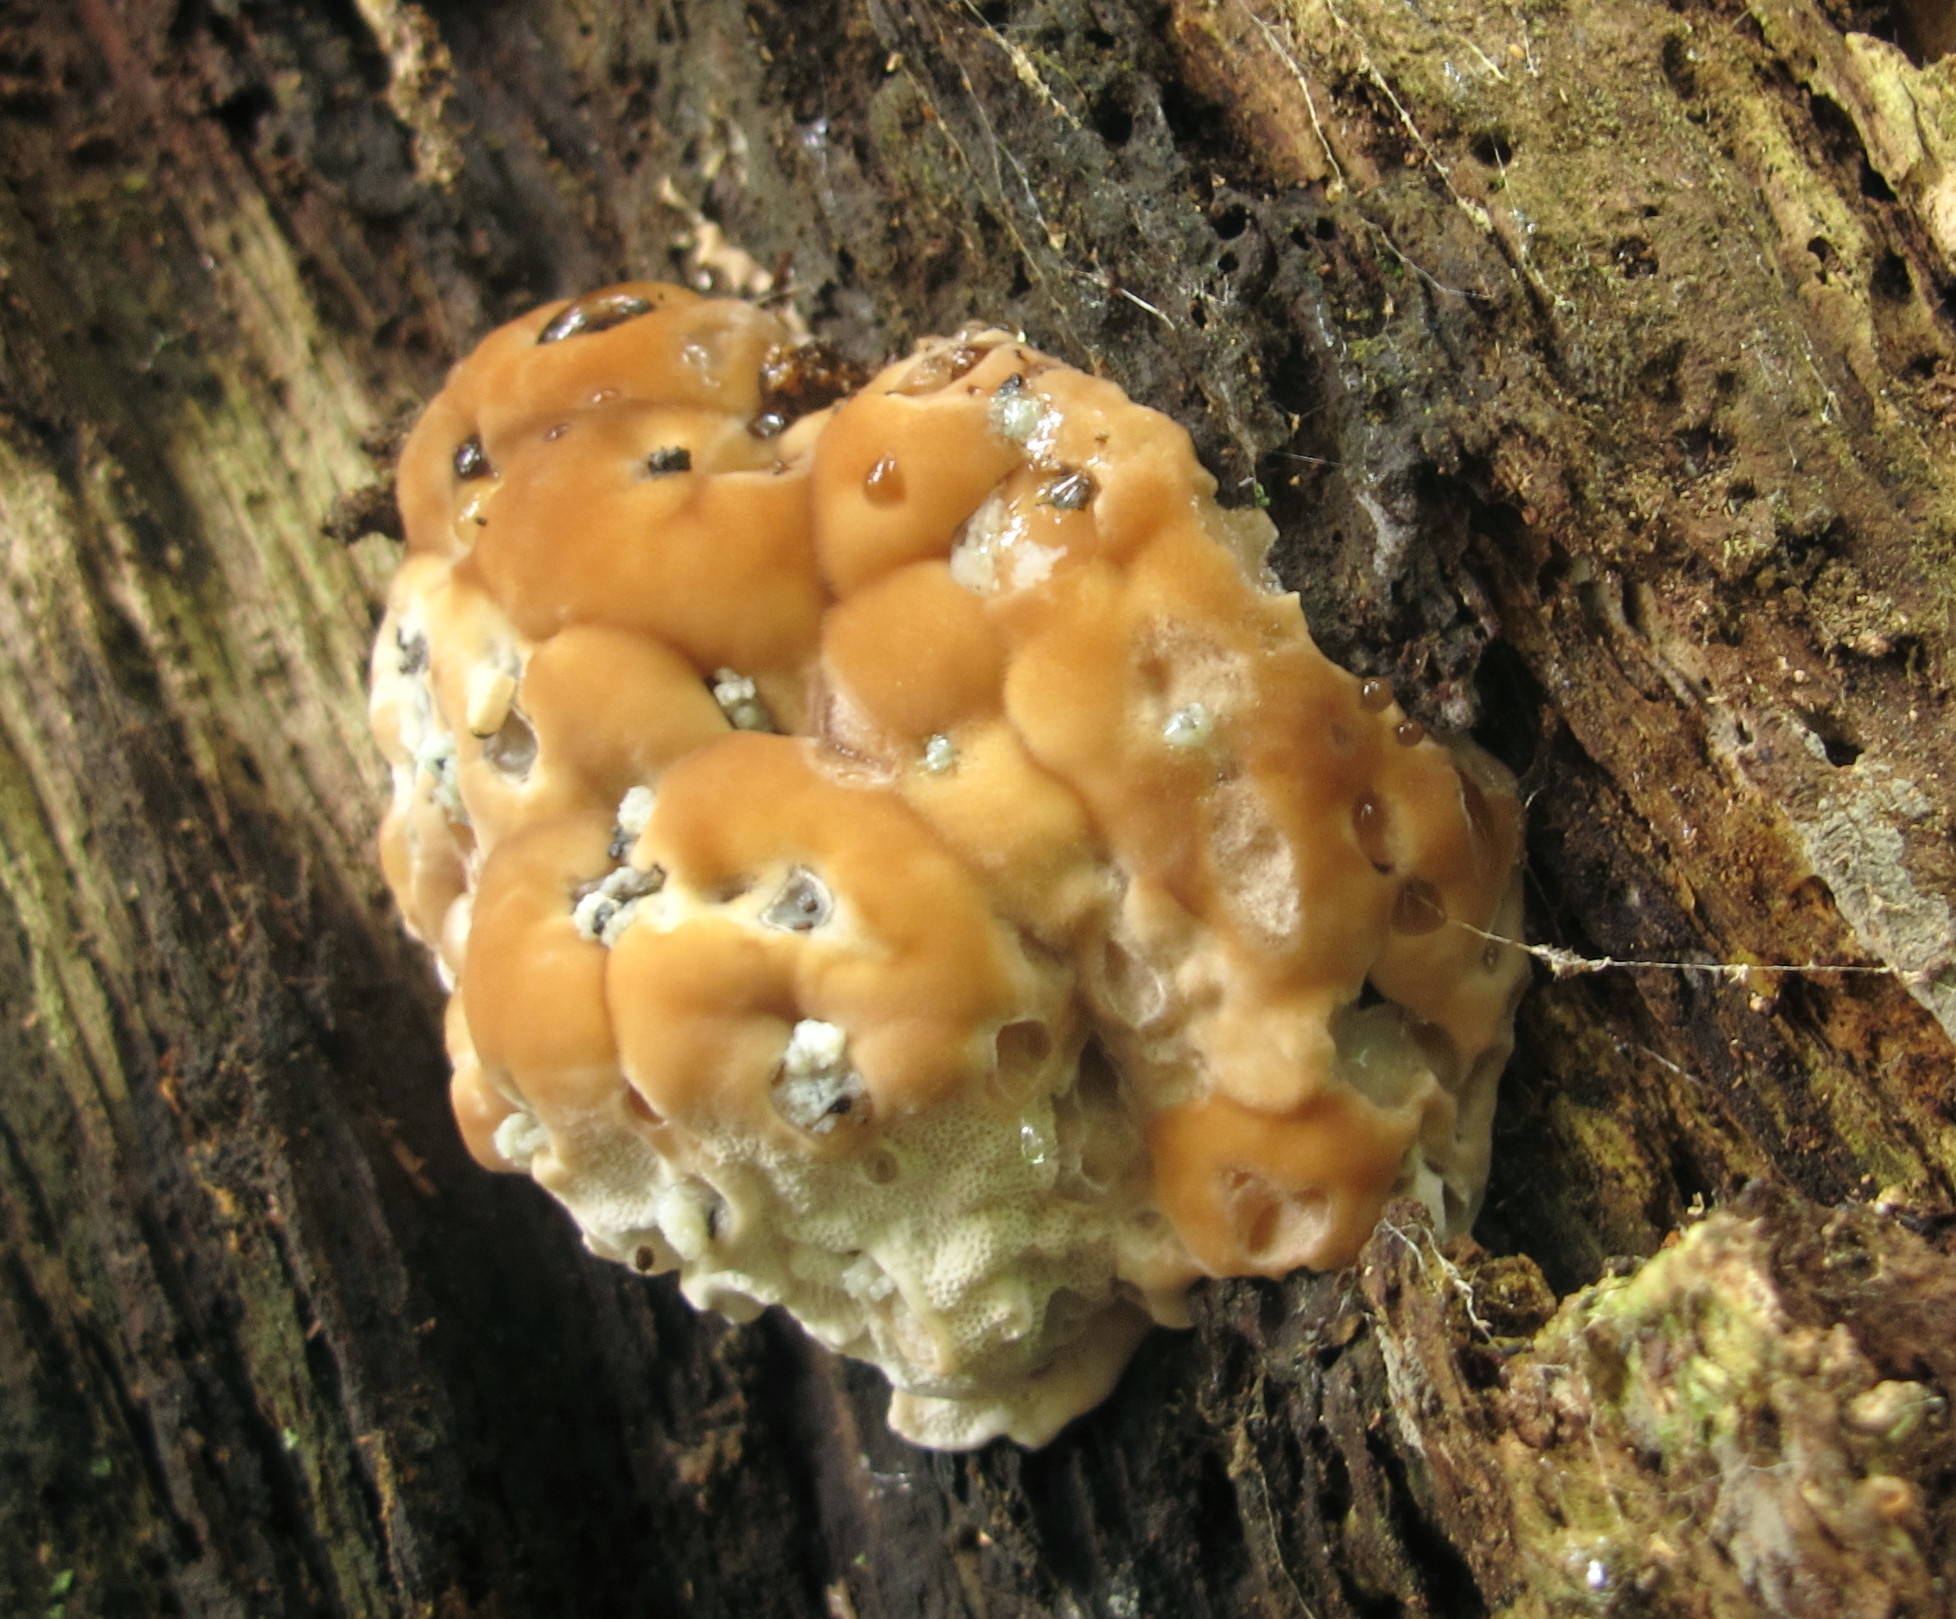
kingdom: Fungi
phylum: Basidiomycota
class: Agaricomycetes
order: Polyporales
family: Fomitopsidaceae
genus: Niveoporofomes
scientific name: Niveoporofomes spraguei
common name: Green cheese polypore
